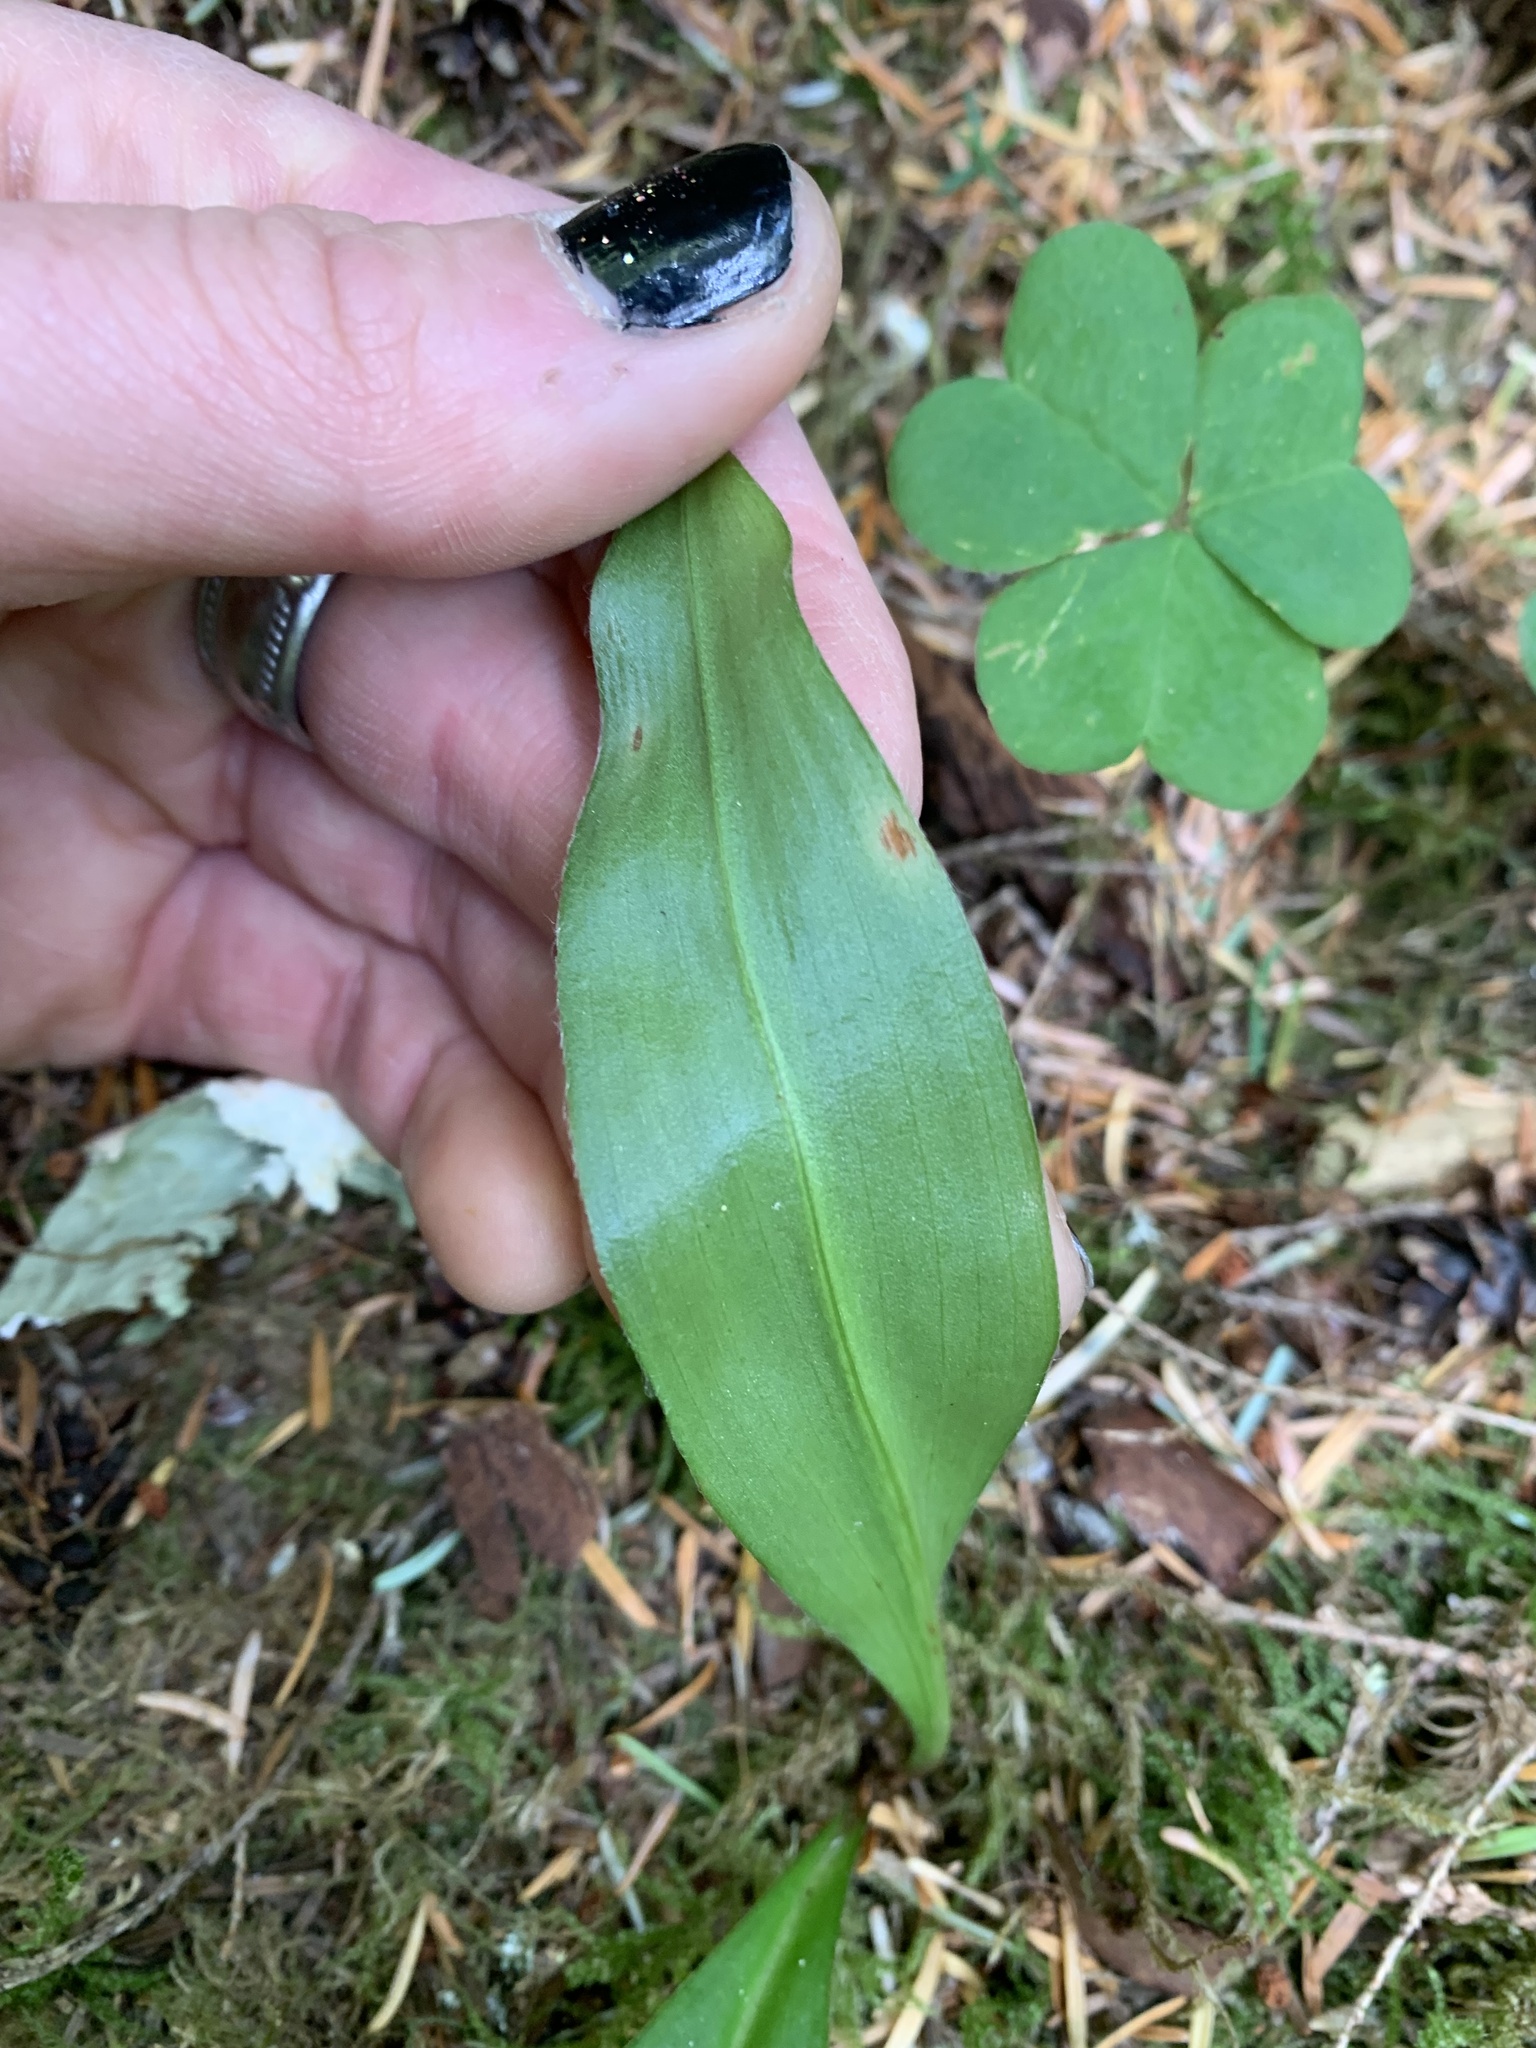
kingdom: Plantae
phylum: Tracheophyta
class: Liliopsida
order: Liliales
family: Liliaceae
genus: Clintonia
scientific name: Clintonia uniflora
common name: Queen's cup
